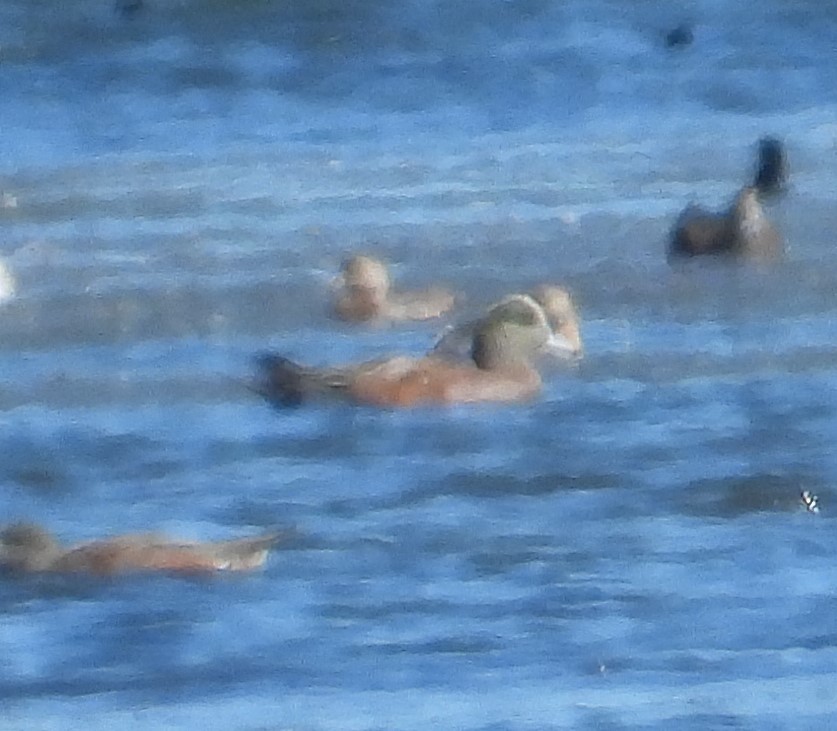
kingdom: Animalia
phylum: Chordata
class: Aves
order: Anseriformes
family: Anatidae
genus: Mareca
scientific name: Mareca americana
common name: American wigeon
